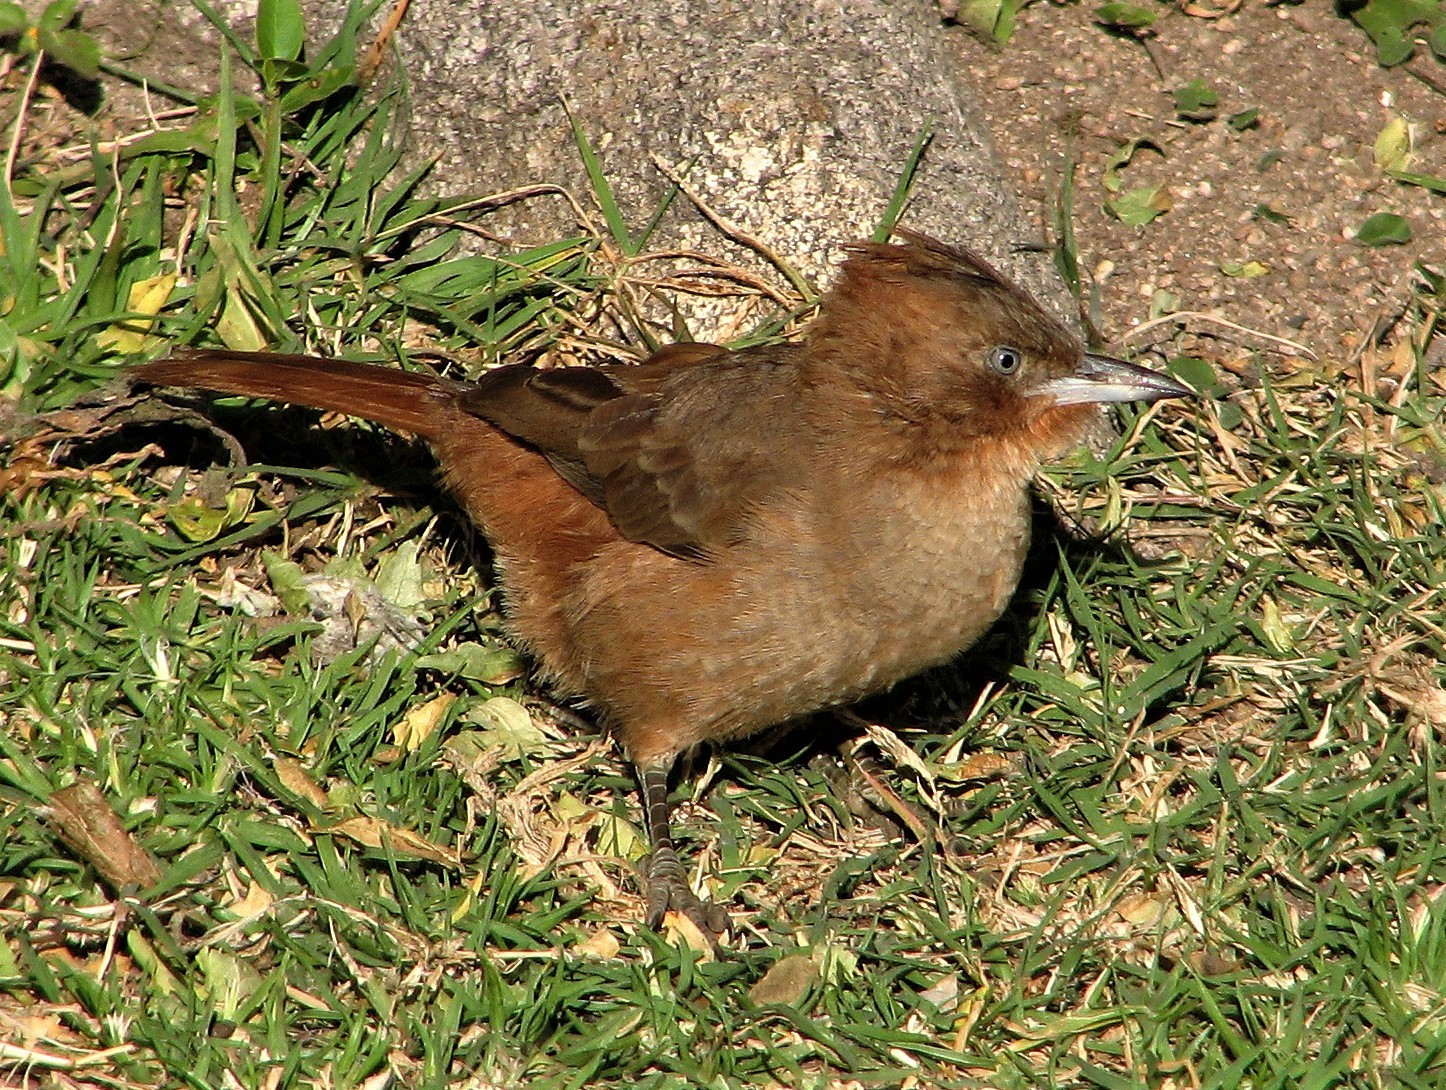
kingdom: Animalia
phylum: Chordata
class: Aves
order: Passeriformes
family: Furnariidae
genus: Pseudoseisura
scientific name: Pseudoseisura lophotes
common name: Brown cacholote
